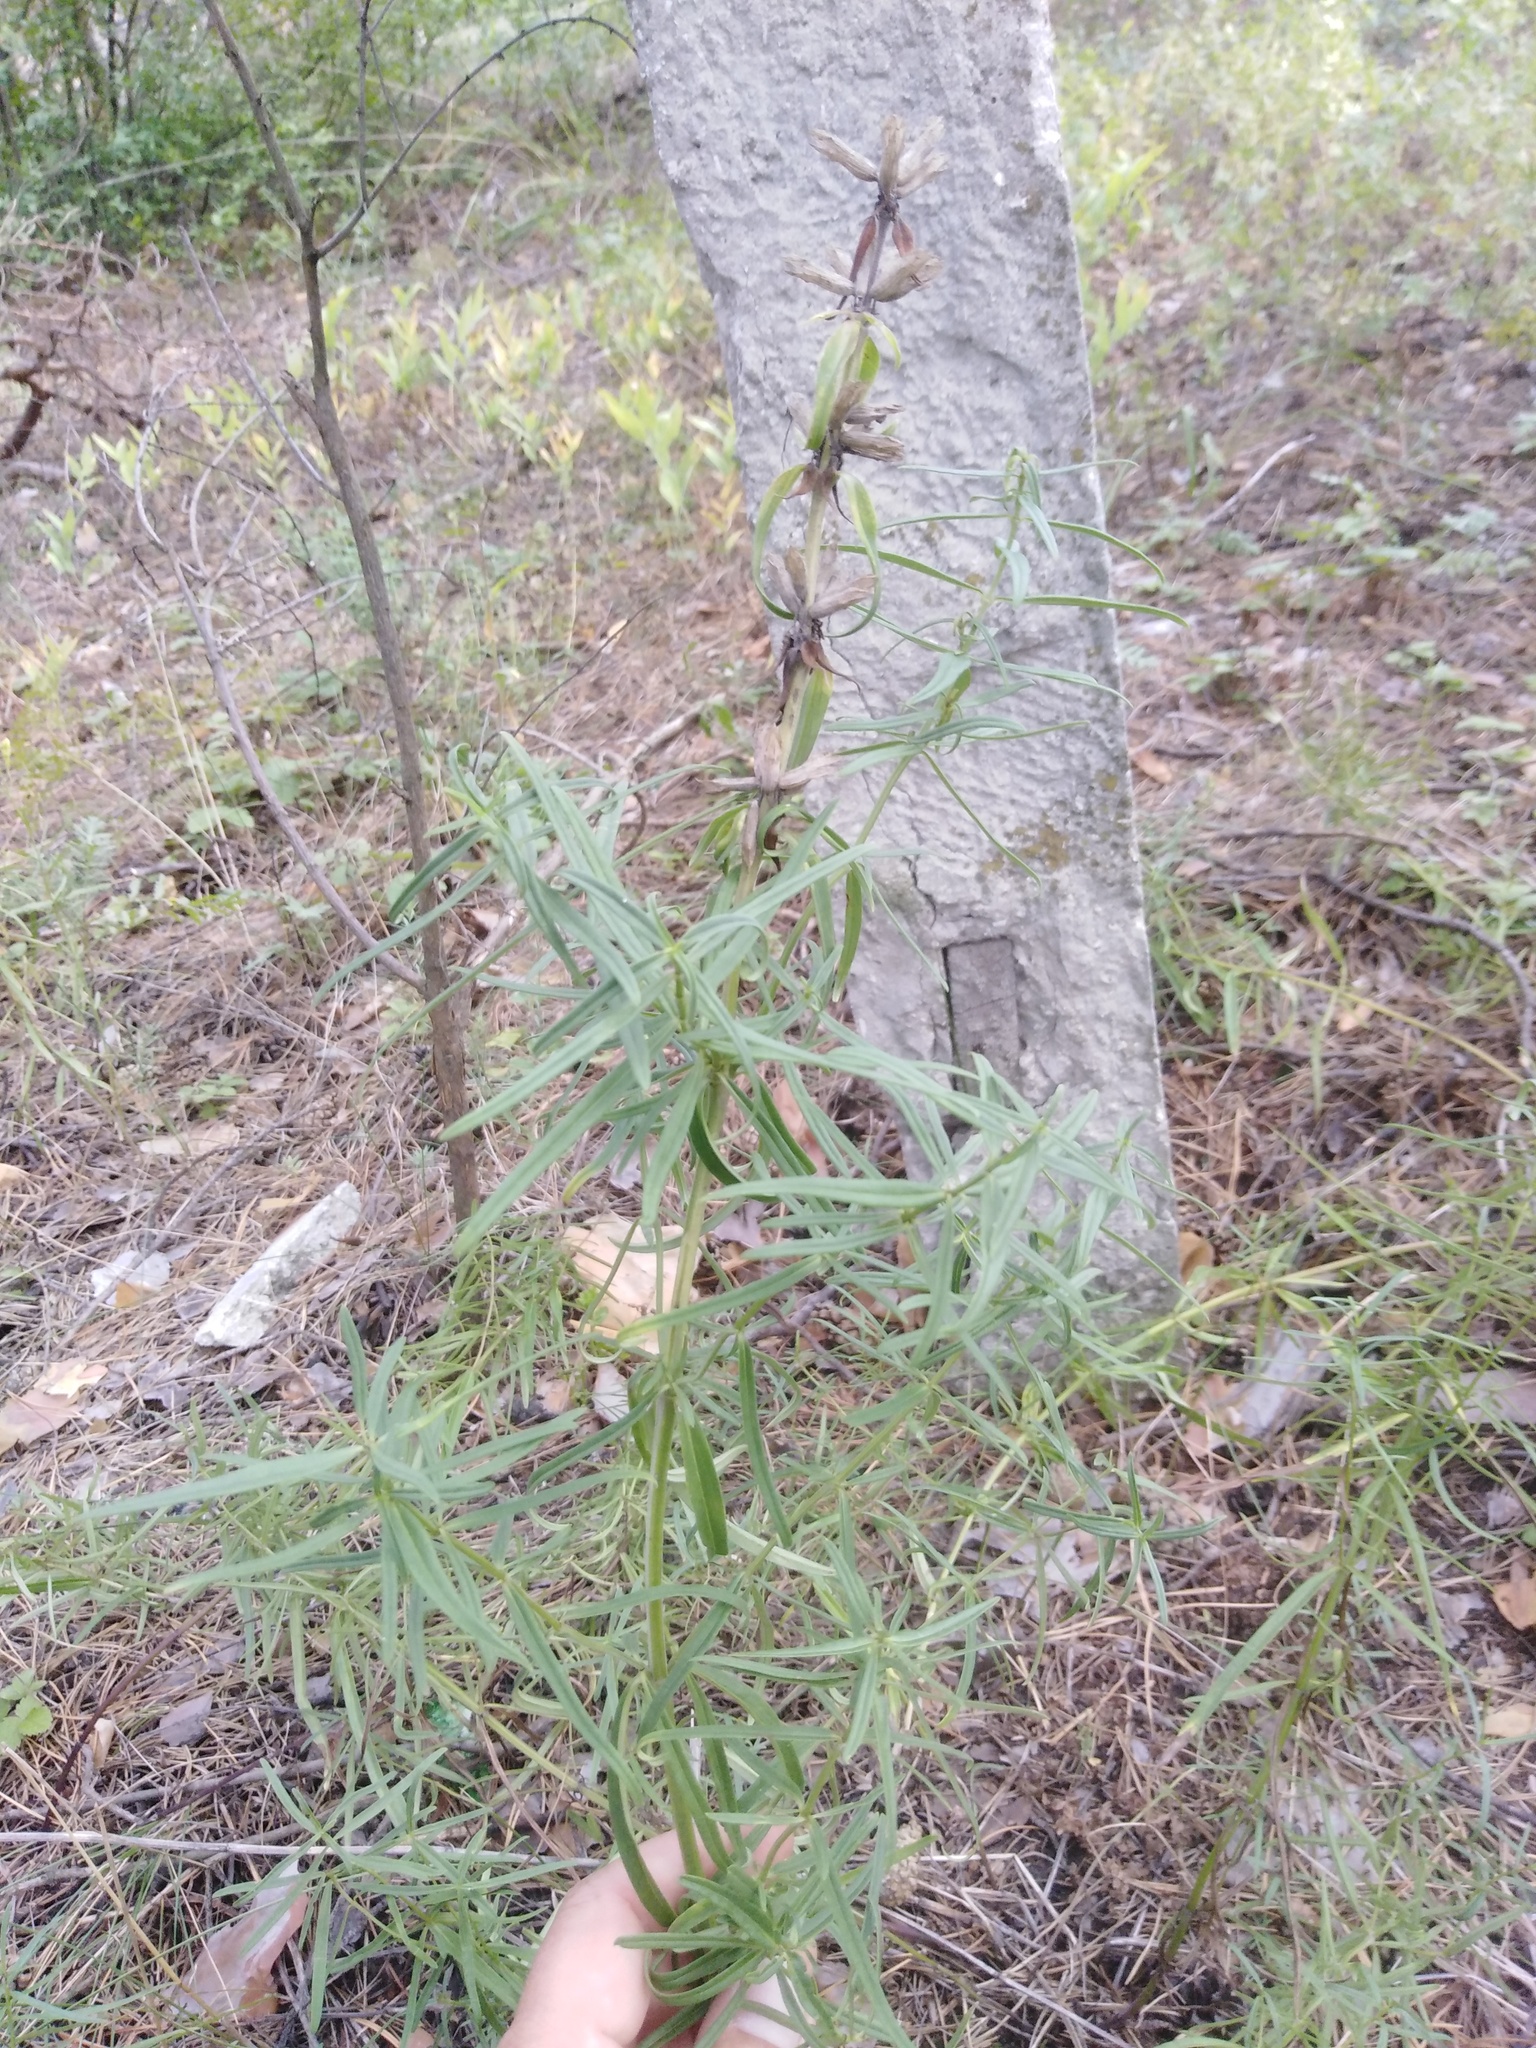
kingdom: Plantae
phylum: Tracheophyta
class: Magnoliopsida
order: Lamiales
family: Lamiaceae
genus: Dracocephalum
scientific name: Dracocephalum ruyschiana
